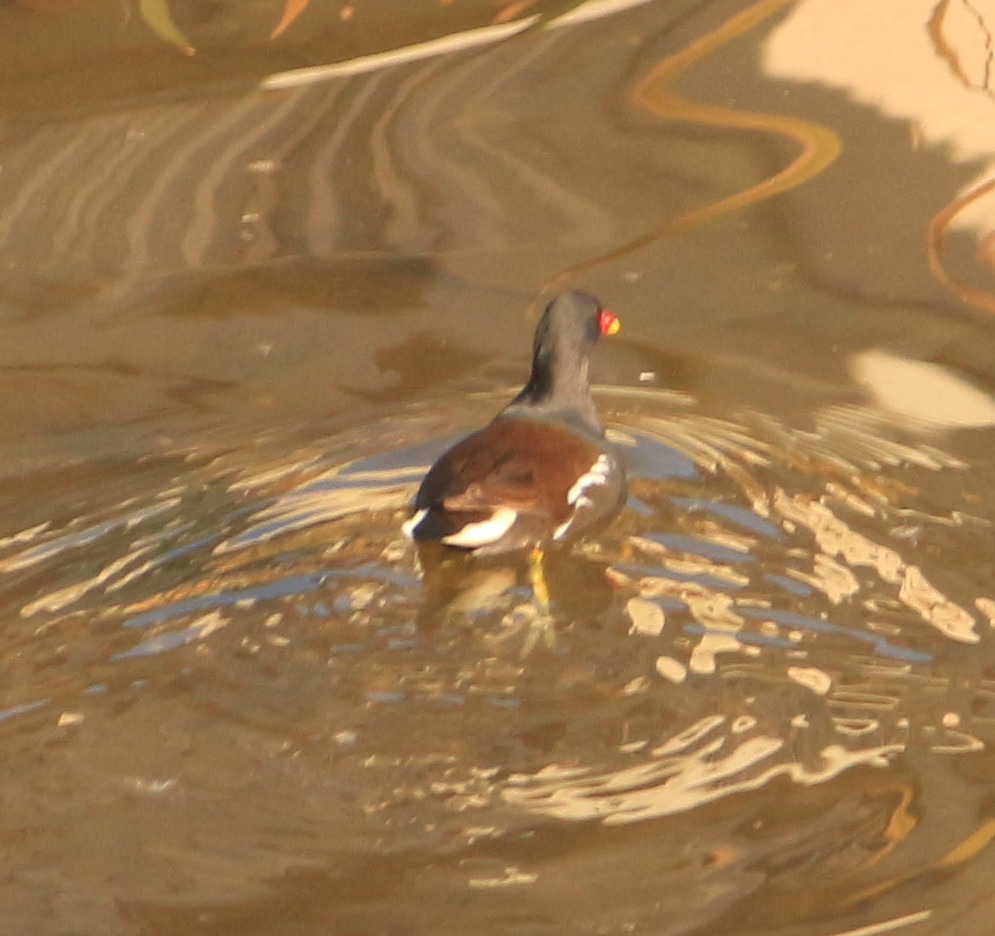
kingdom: Animalia
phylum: Chordata
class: Aves
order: Gruiformes
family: Rallidae
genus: Gallinula
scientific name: Gallinula chloropus
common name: Common moorhen
